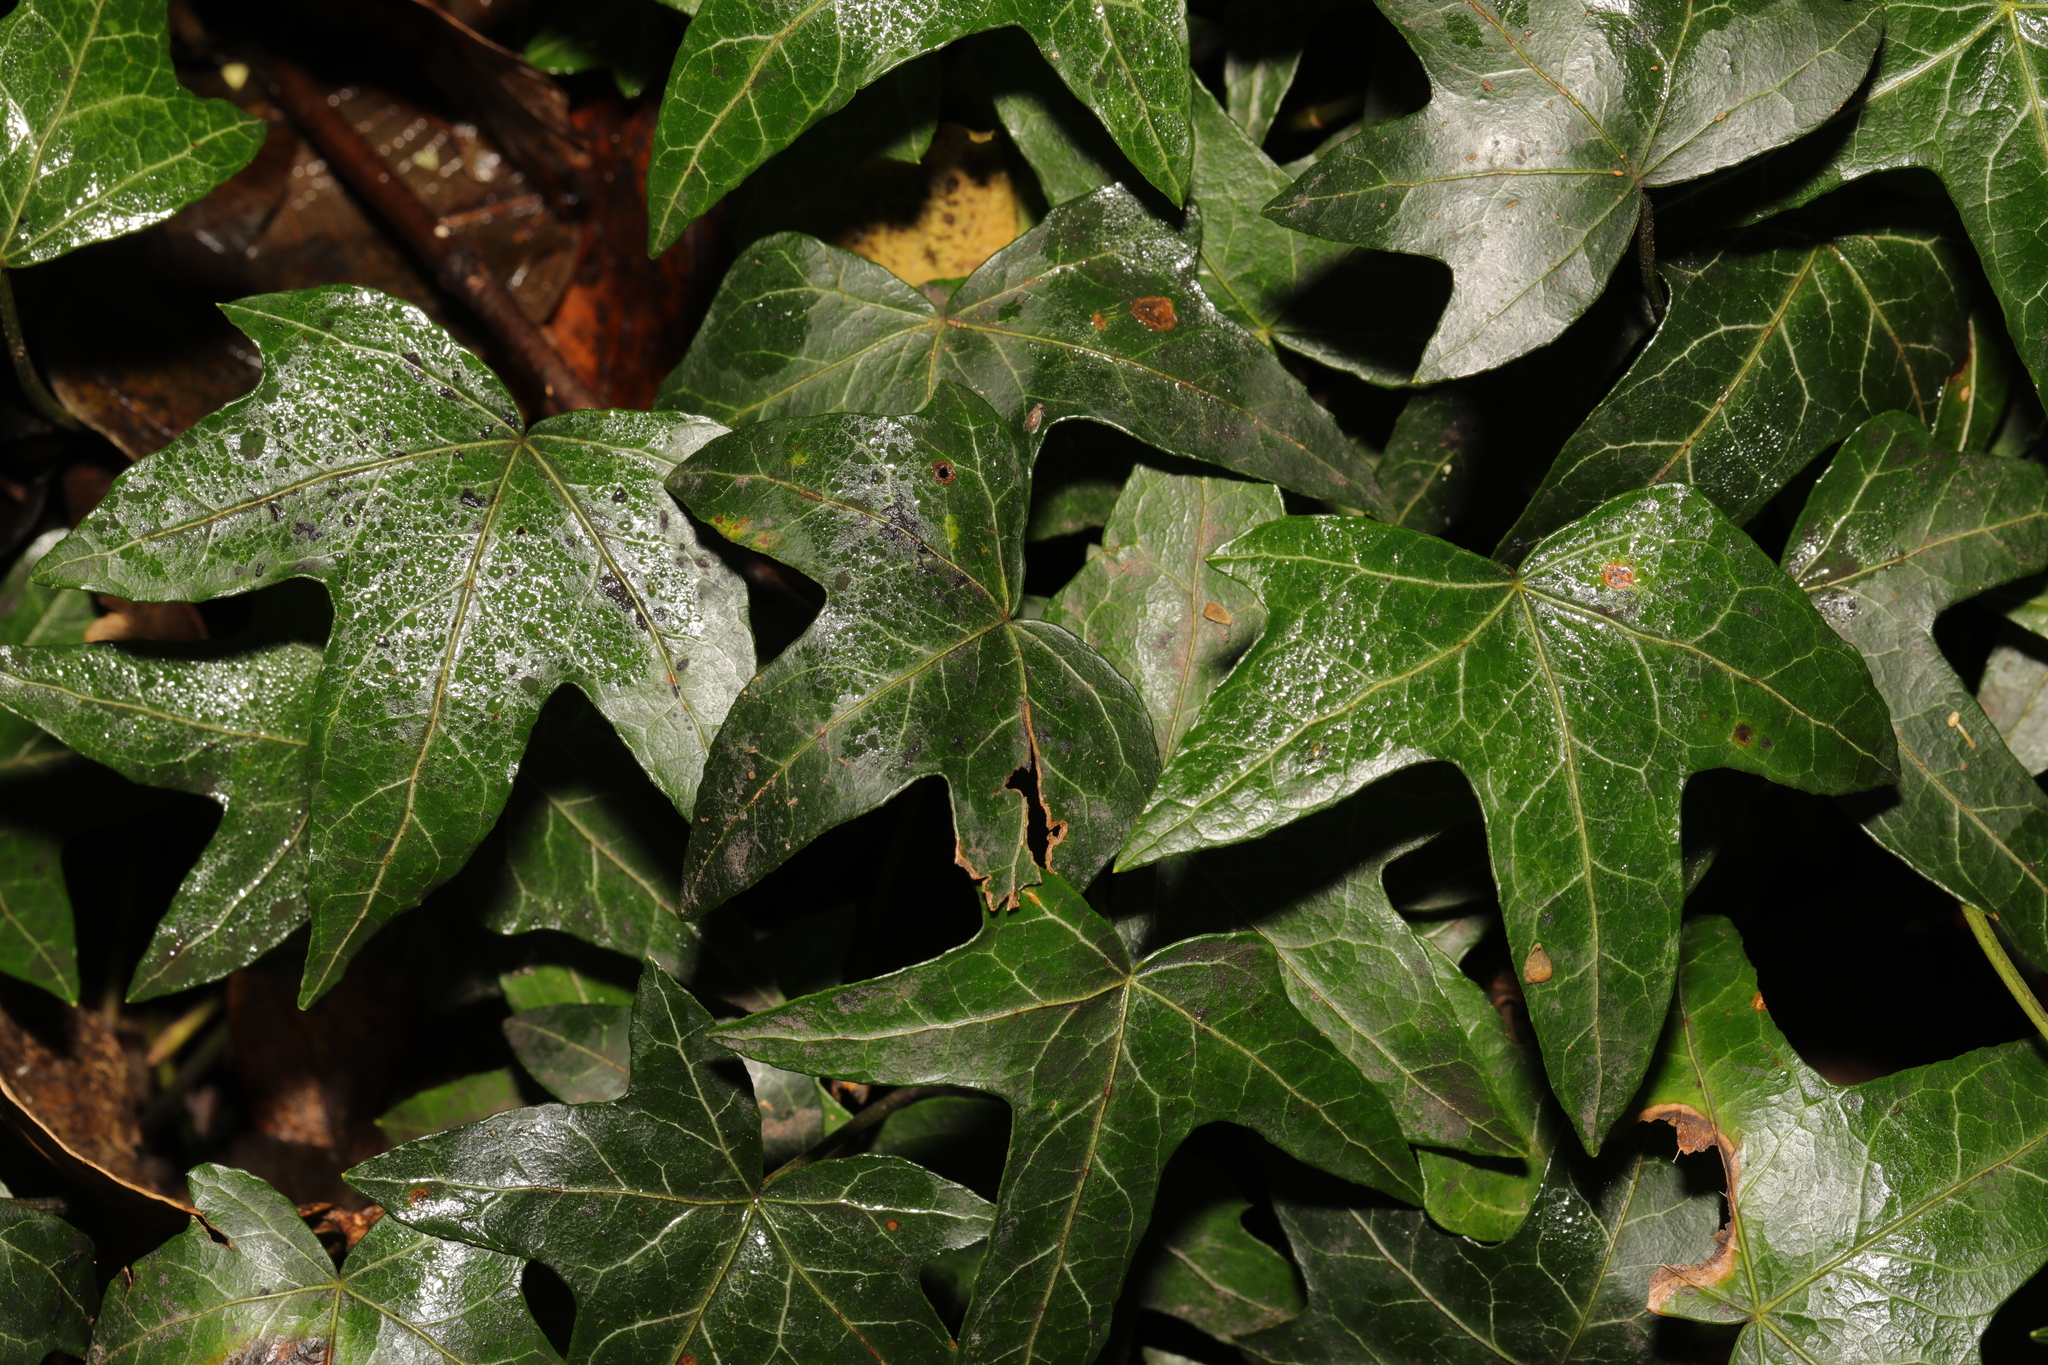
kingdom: Plantae
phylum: Tracheophyta
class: Magnoliopsida
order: Apiales
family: Araliaceae
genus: Hedera
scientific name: Hedera helix
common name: Ivy
